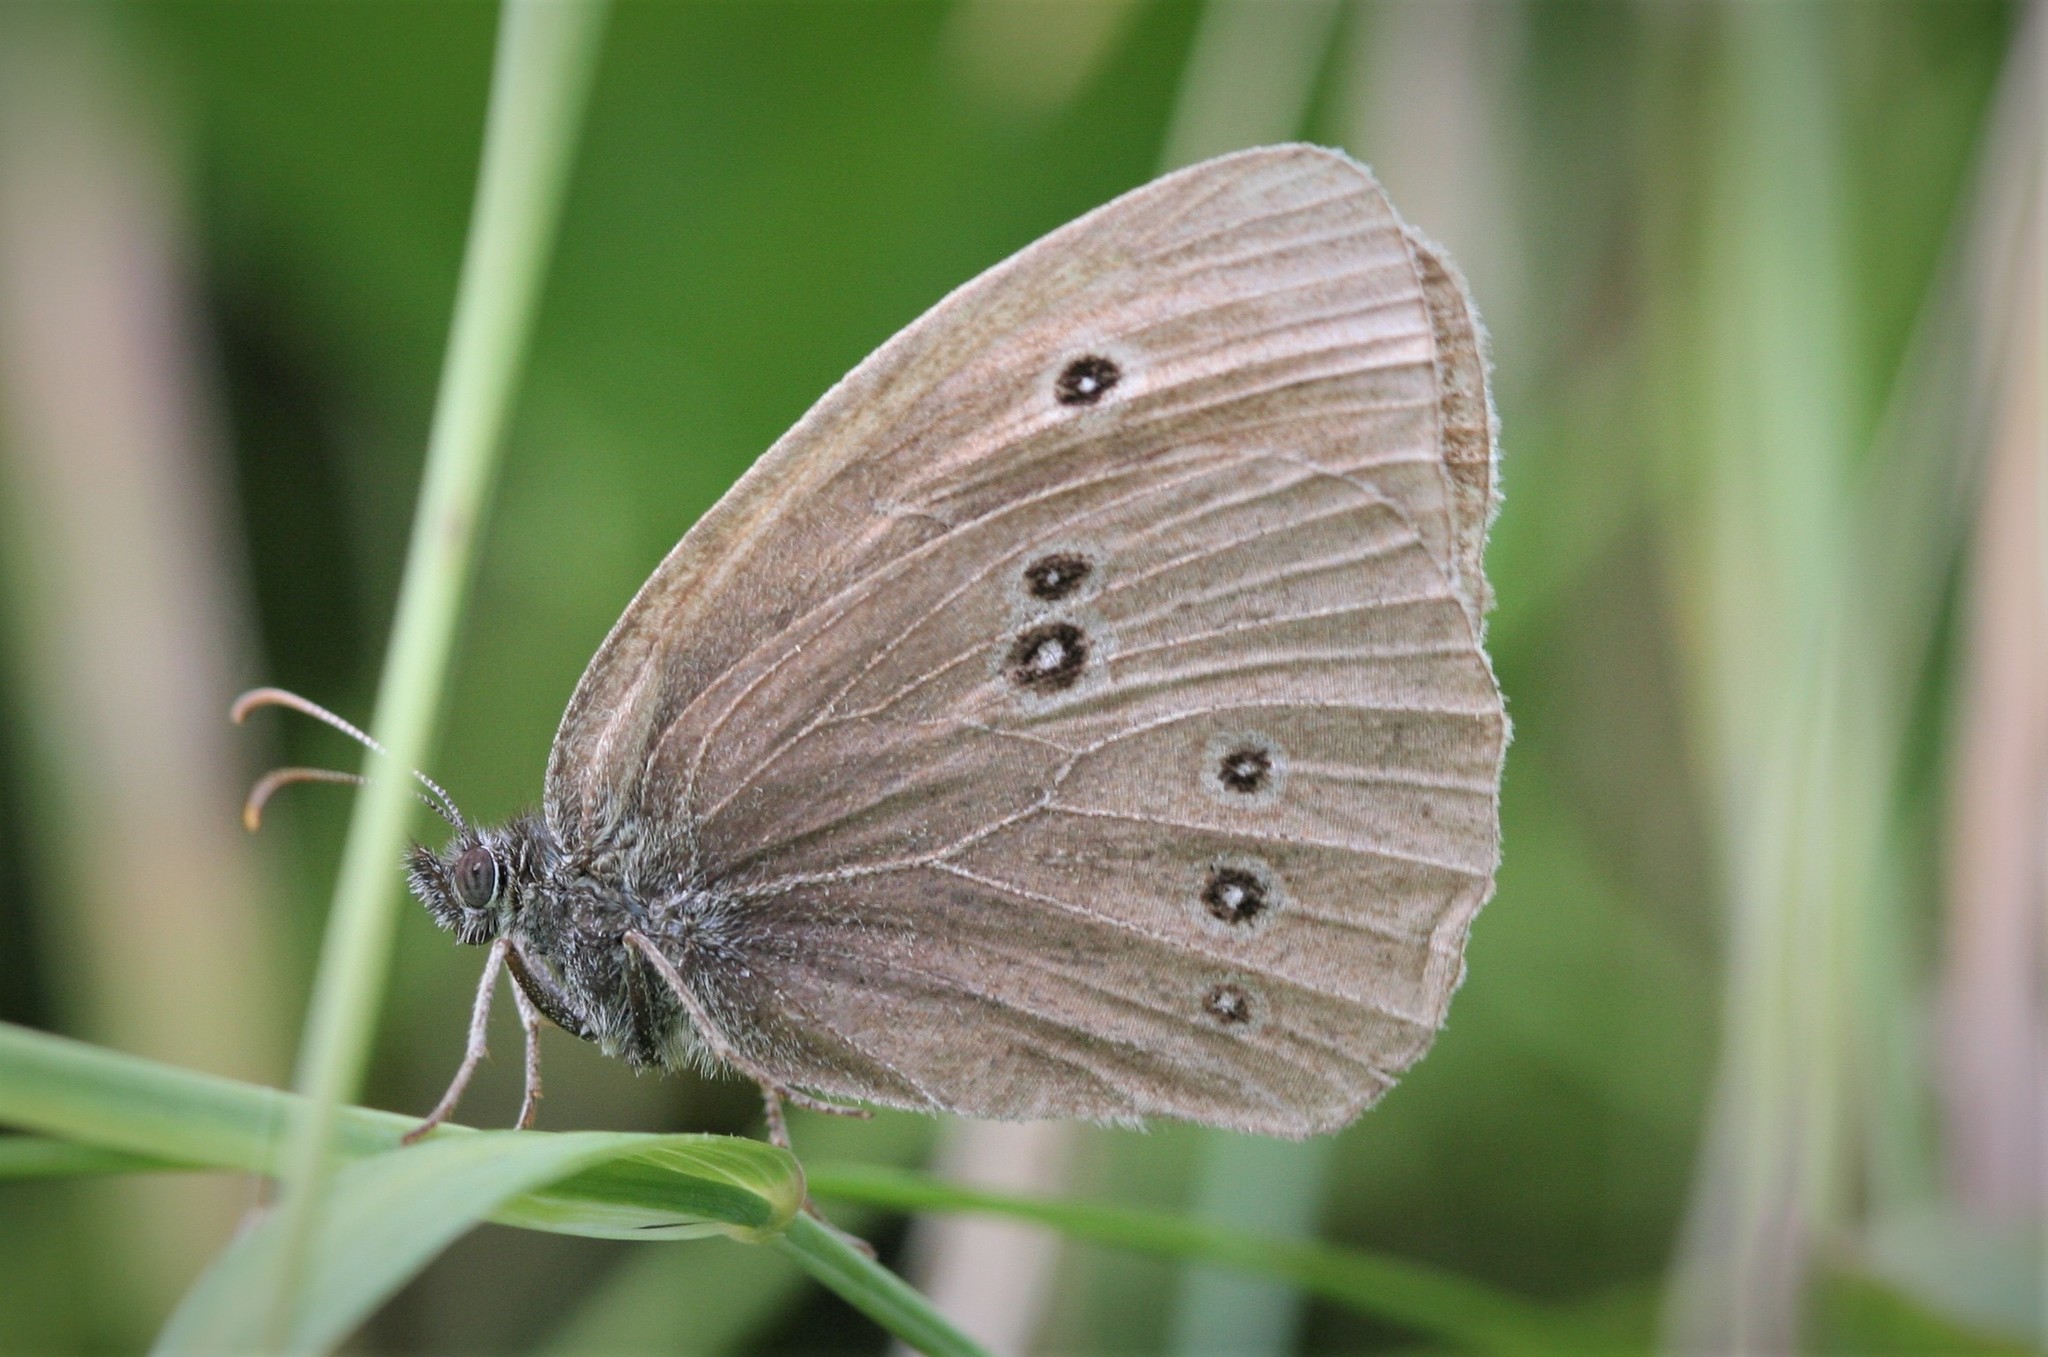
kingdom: Animalia
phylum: Arthropoda
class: Insecta
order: Lepidoptera
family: Nymphalidae
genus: Aphantopus
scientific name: Aphantopus hyperantus
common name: Ringlet
